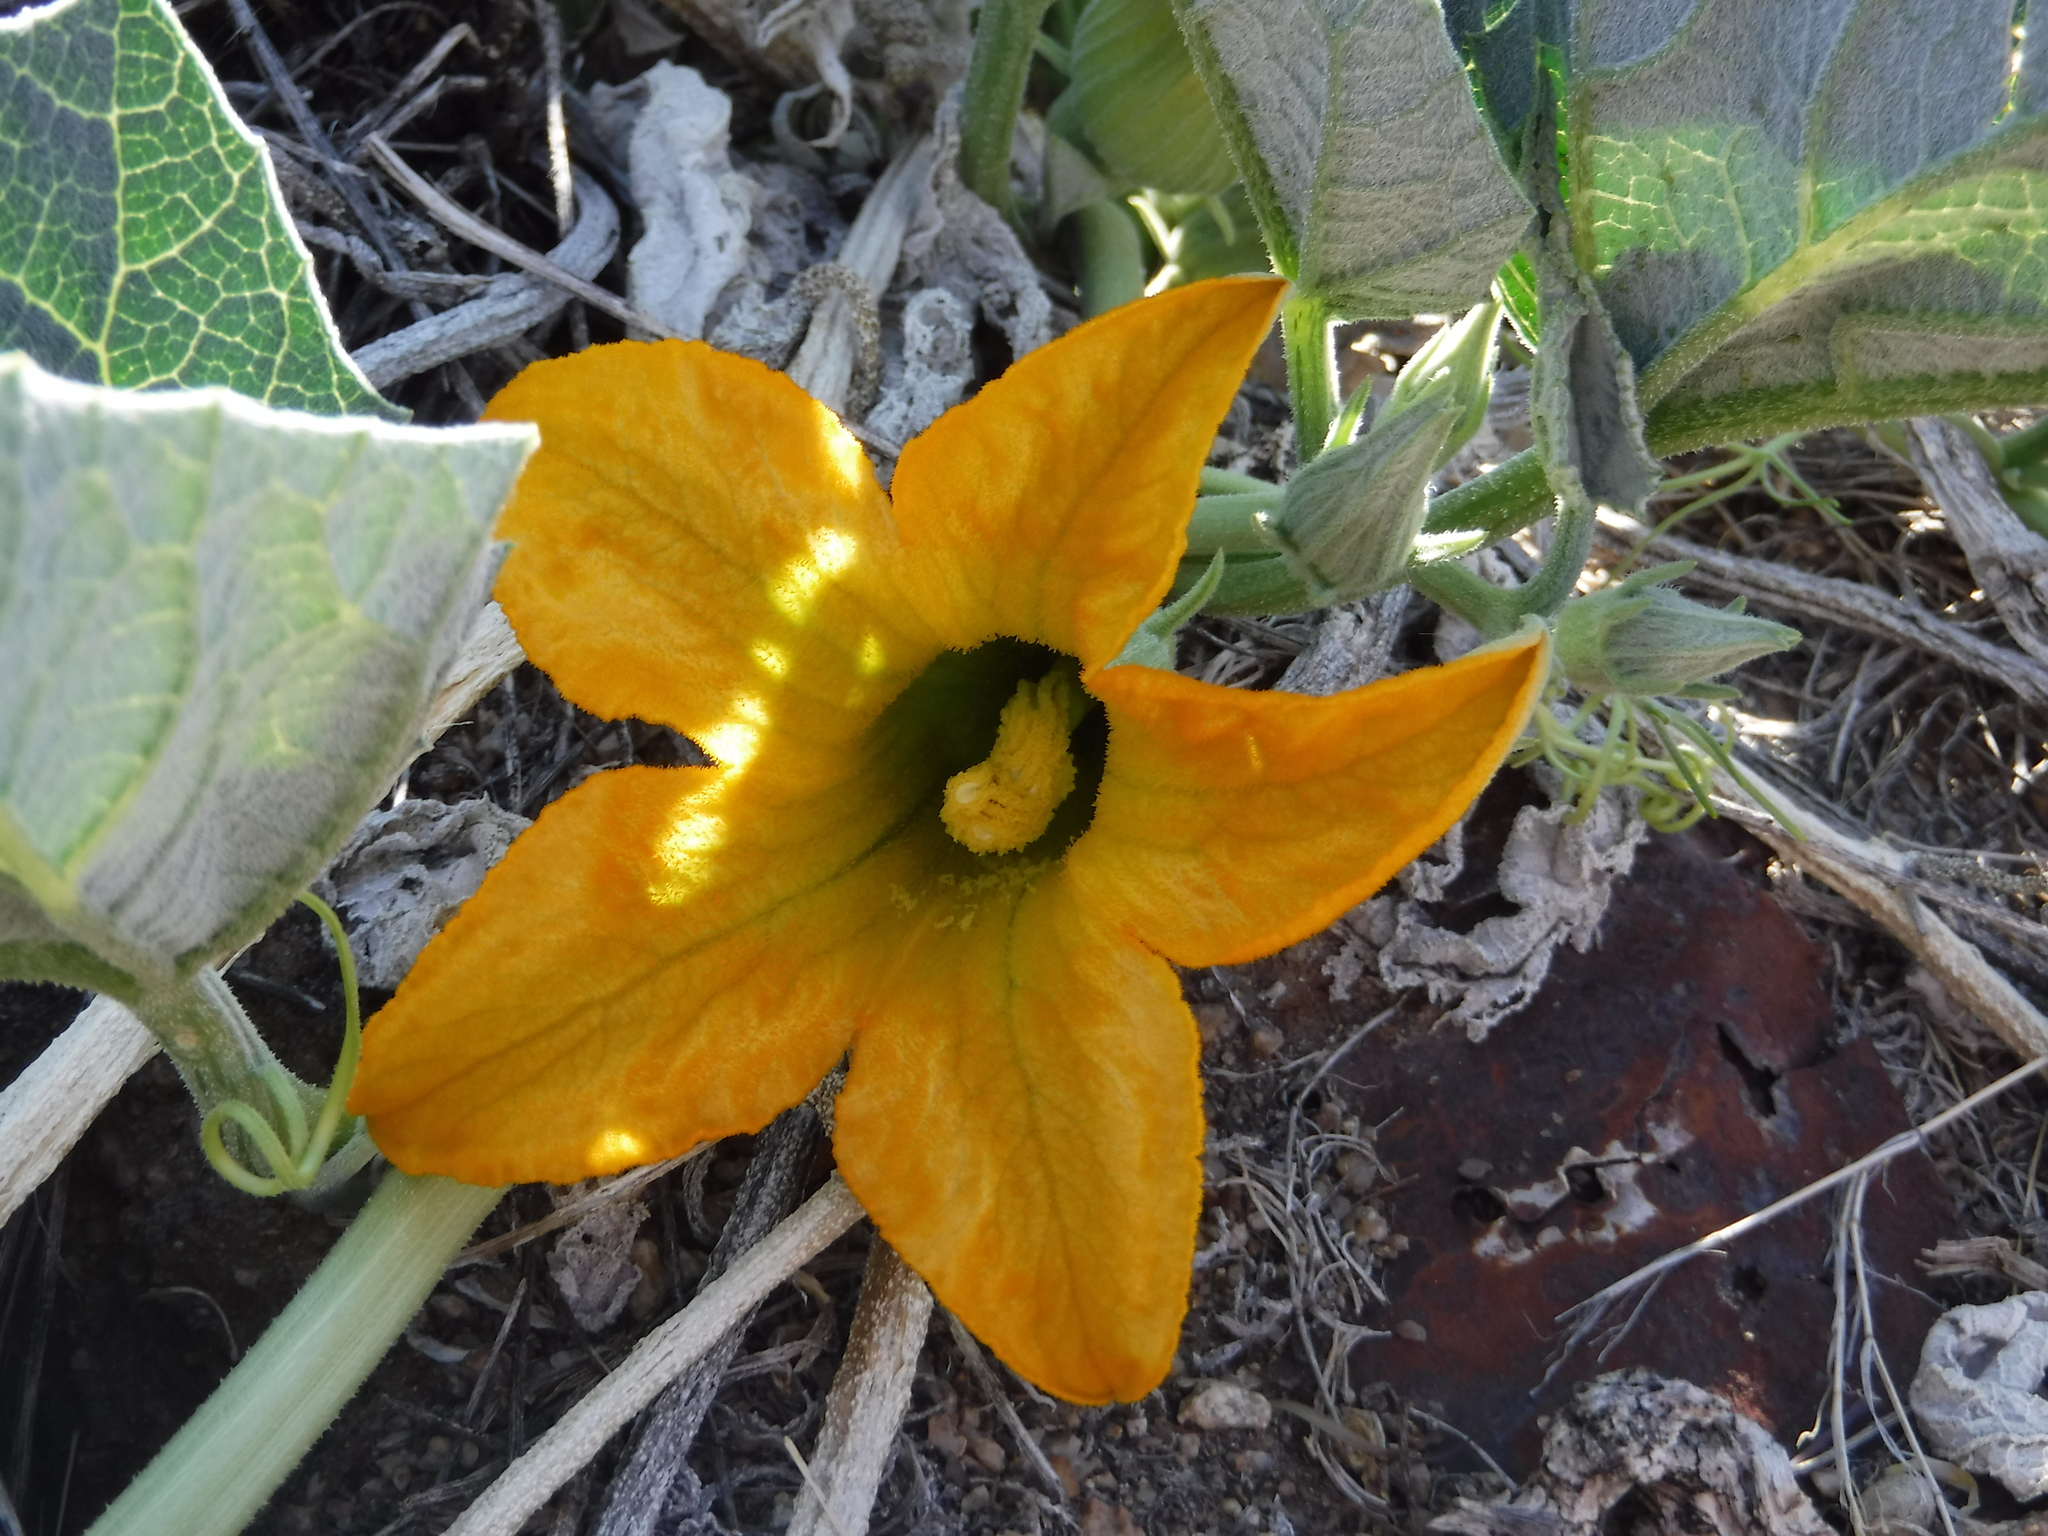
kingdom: Plantae
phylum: Tracheophyta
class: Magnoliopsida
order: Cucurbitales
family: Cucurbitaceae
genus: Cucurbita
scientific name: Cucurbita foetidissima
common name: Buffalo gourd
